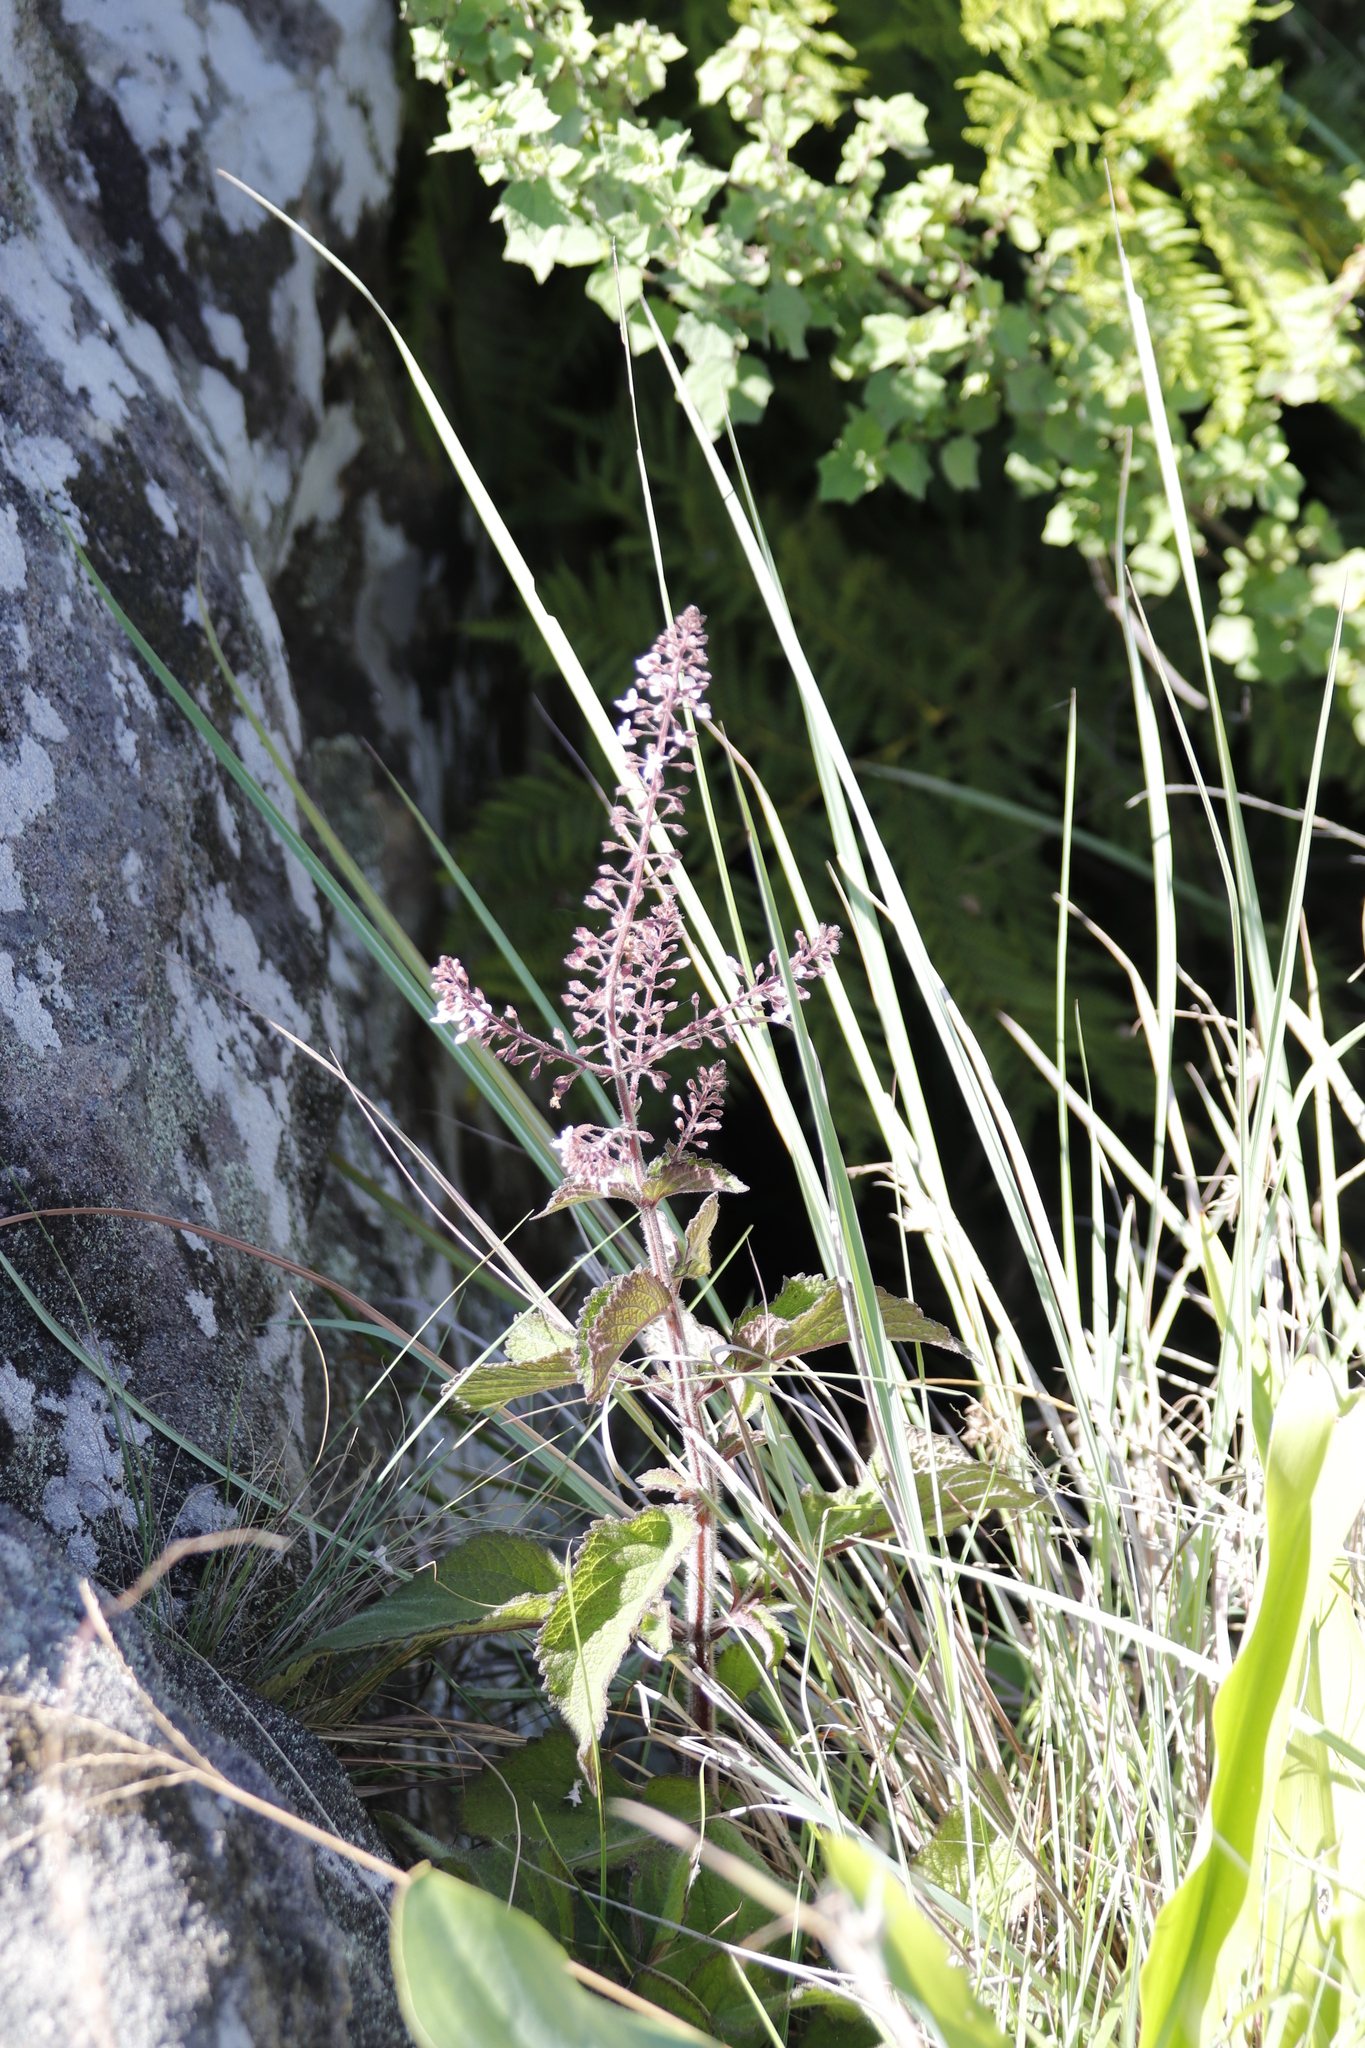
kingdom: Plantae
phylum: Tracheophyta
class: Magnoliopsida
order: Lamiales
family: Lamiaceae
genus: Plectranthus
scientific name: Plectranthus grallatus
